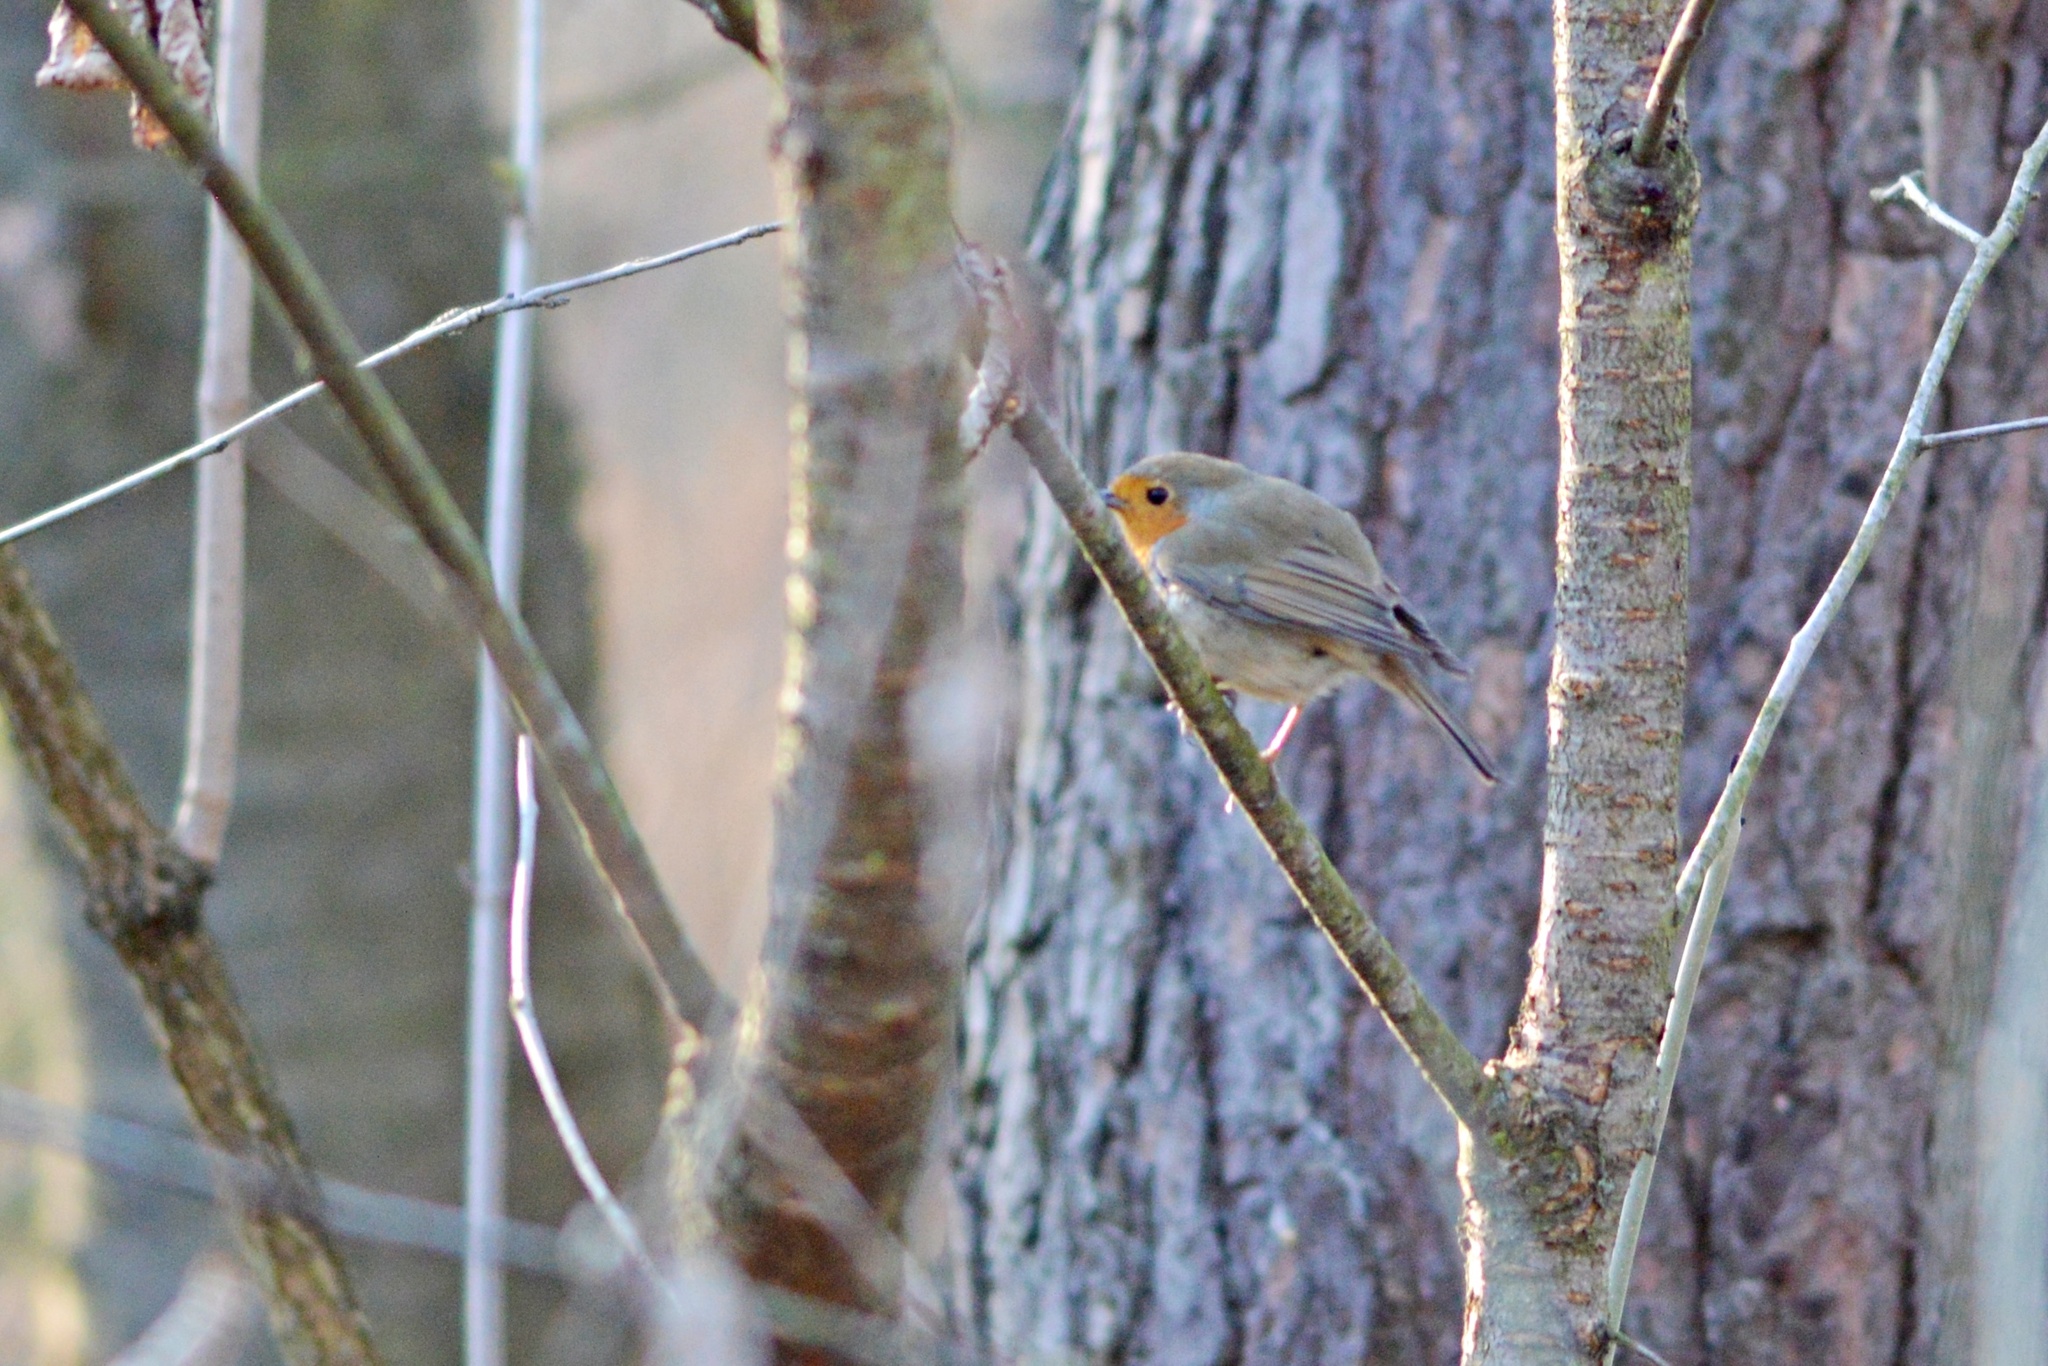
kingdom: Animalia
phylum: Chordata
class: Aves
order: Passeriformes
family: Muscicapidae
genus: Erithacus
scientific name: Erithacus rubecula
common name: European robin
